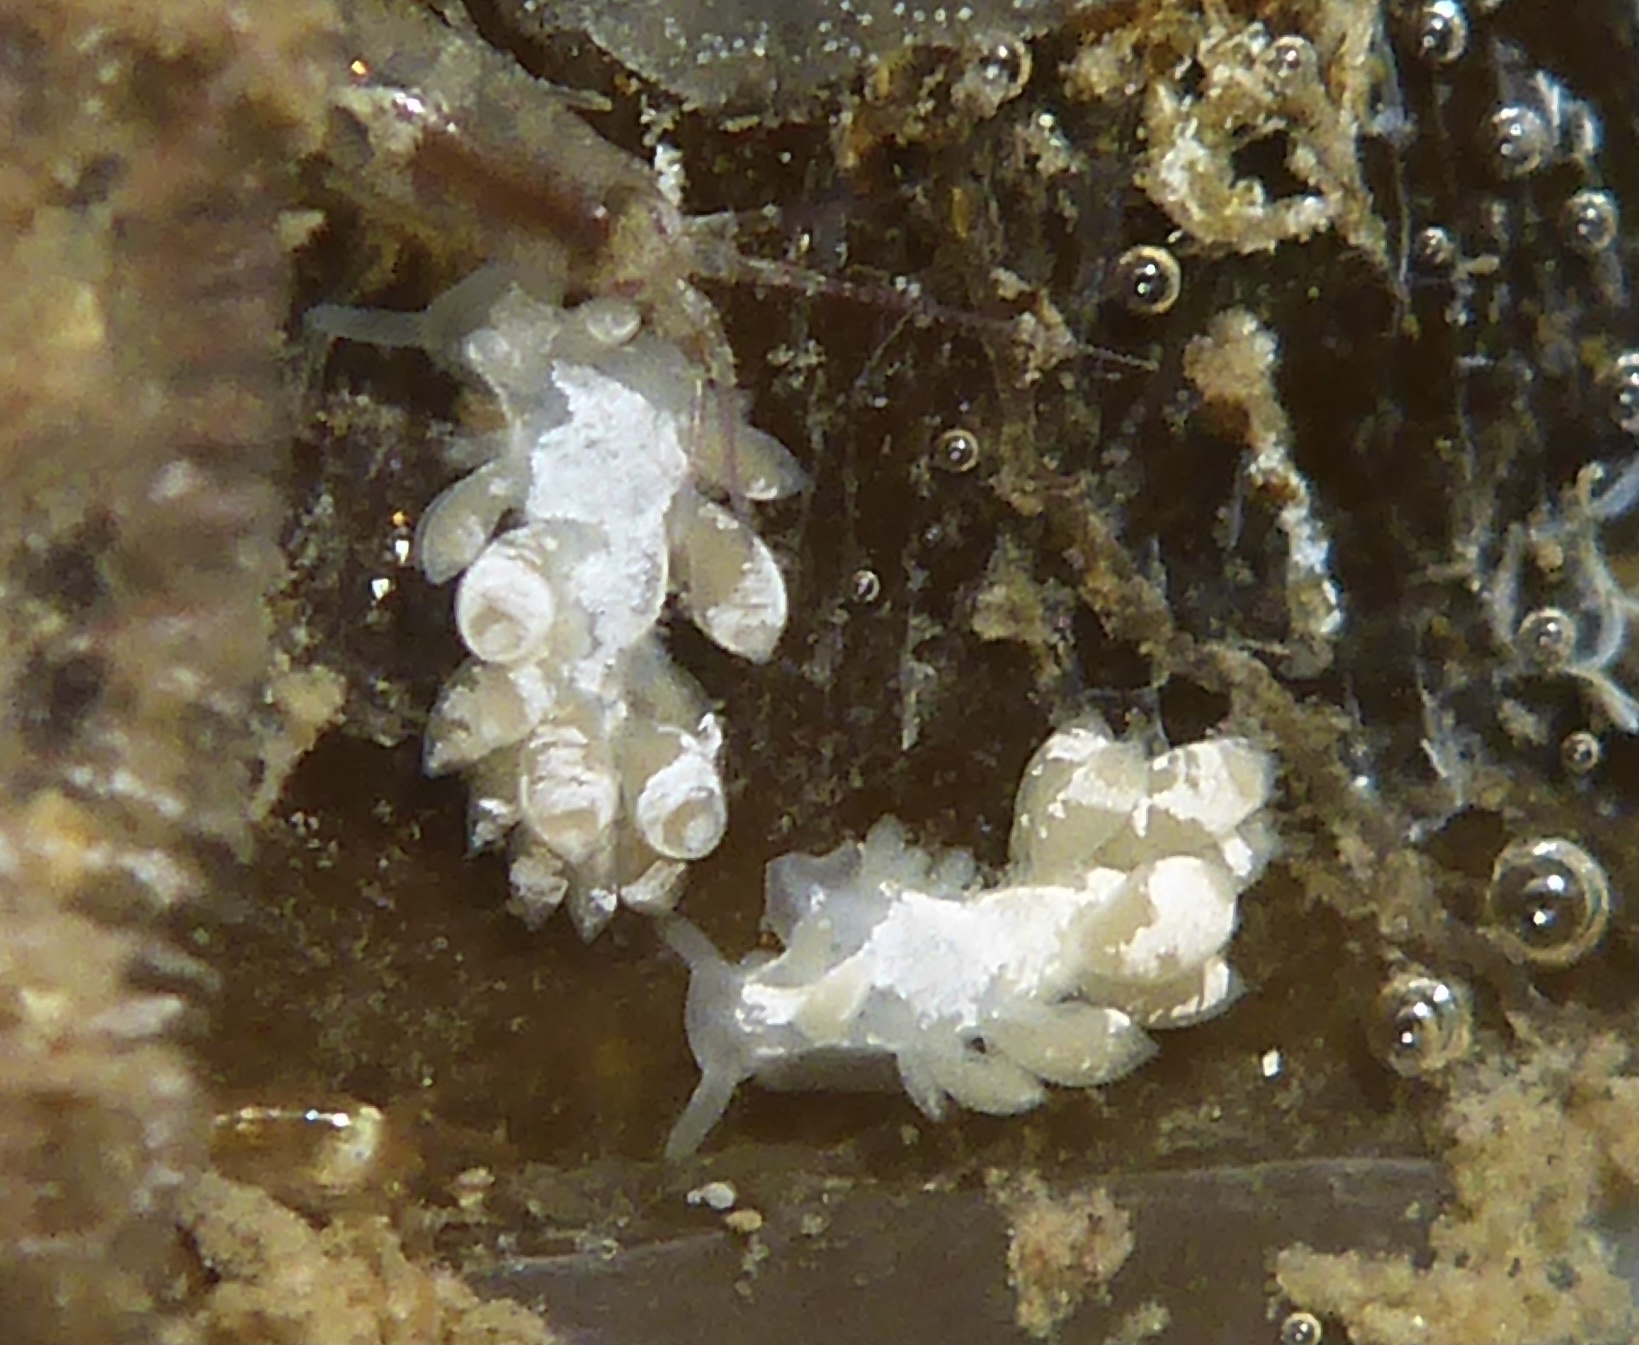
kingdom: Animalia
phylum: Mollusca
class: Gastropoda
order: Nudibranchia
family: Trinchesiidae
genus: Trinchesia
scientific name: Trinchesia albocrusta
